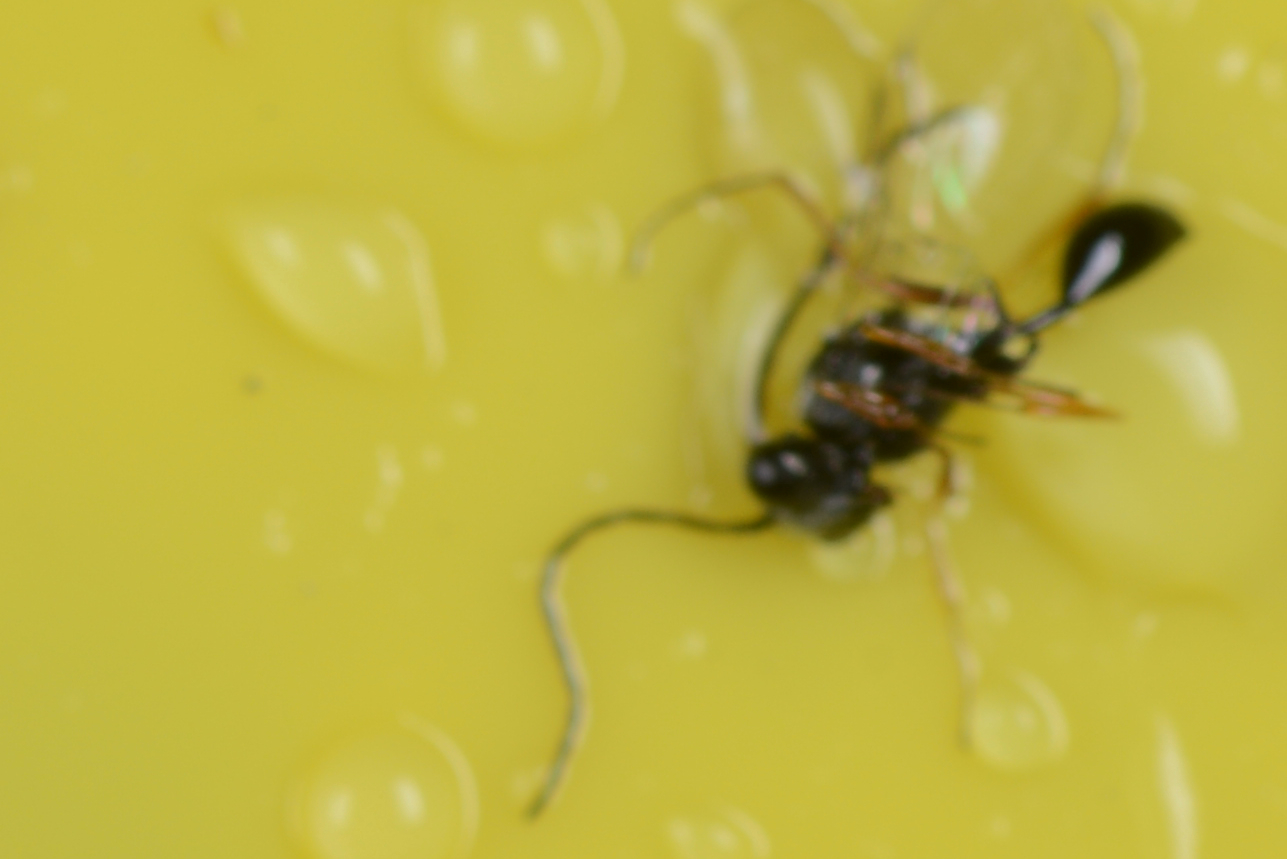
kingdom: Animalia
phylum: Arthropoda
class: Insecta
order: Hymenoptera
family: Figitidae
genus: Anacharis
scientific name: Anacharis zealandica
